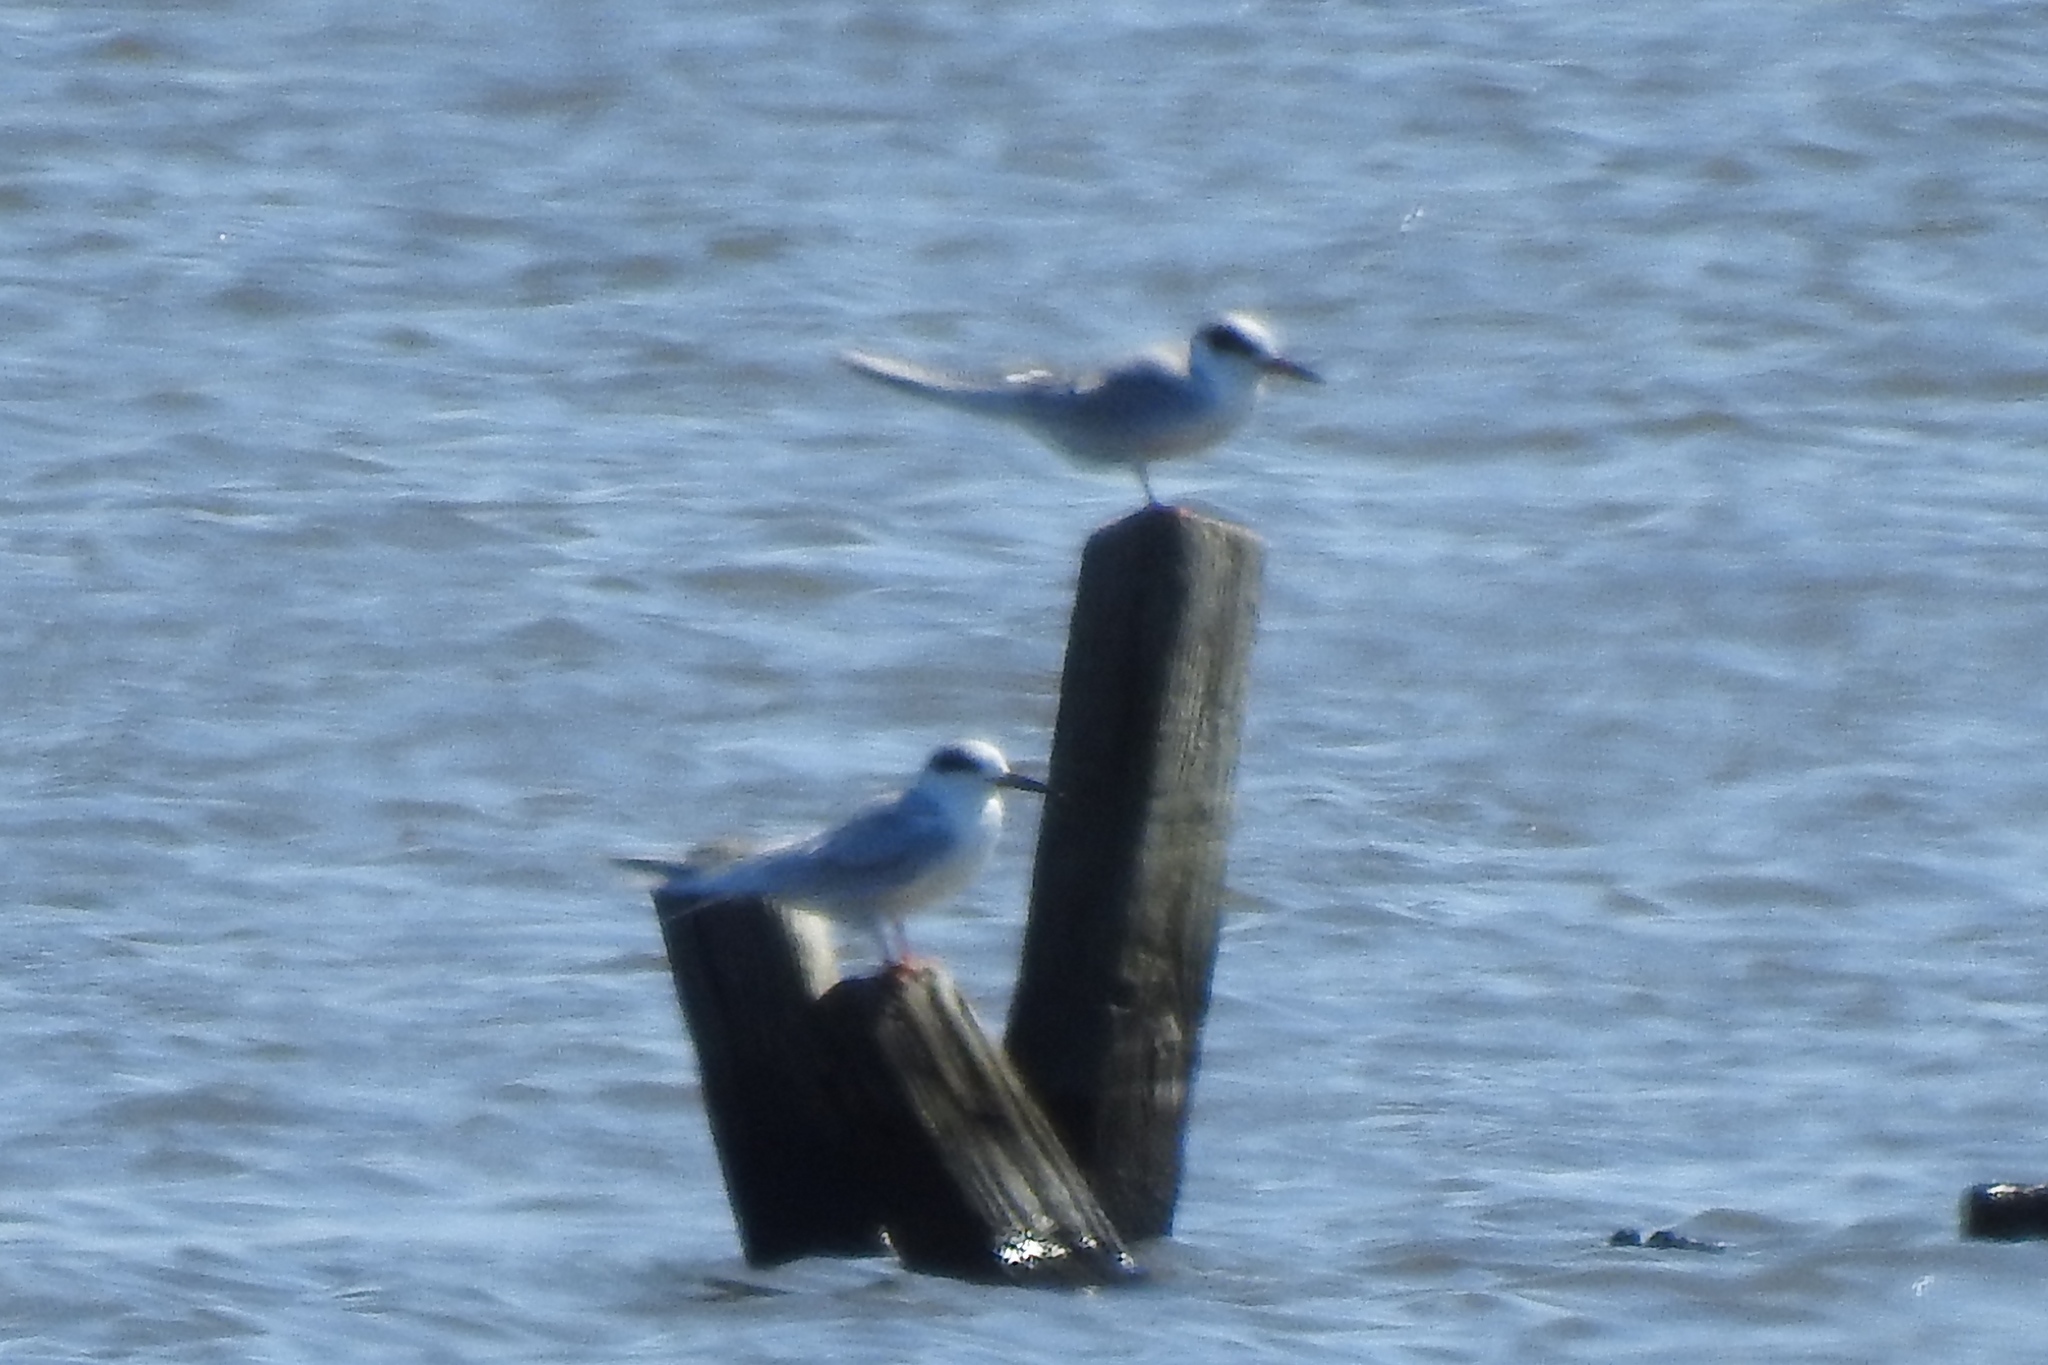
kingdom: Animalia
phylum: Chordata
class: Aves
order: Charadriiformes
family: Laridae
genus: Sterna
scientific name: Sterna forsteri
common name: Forster's tern
